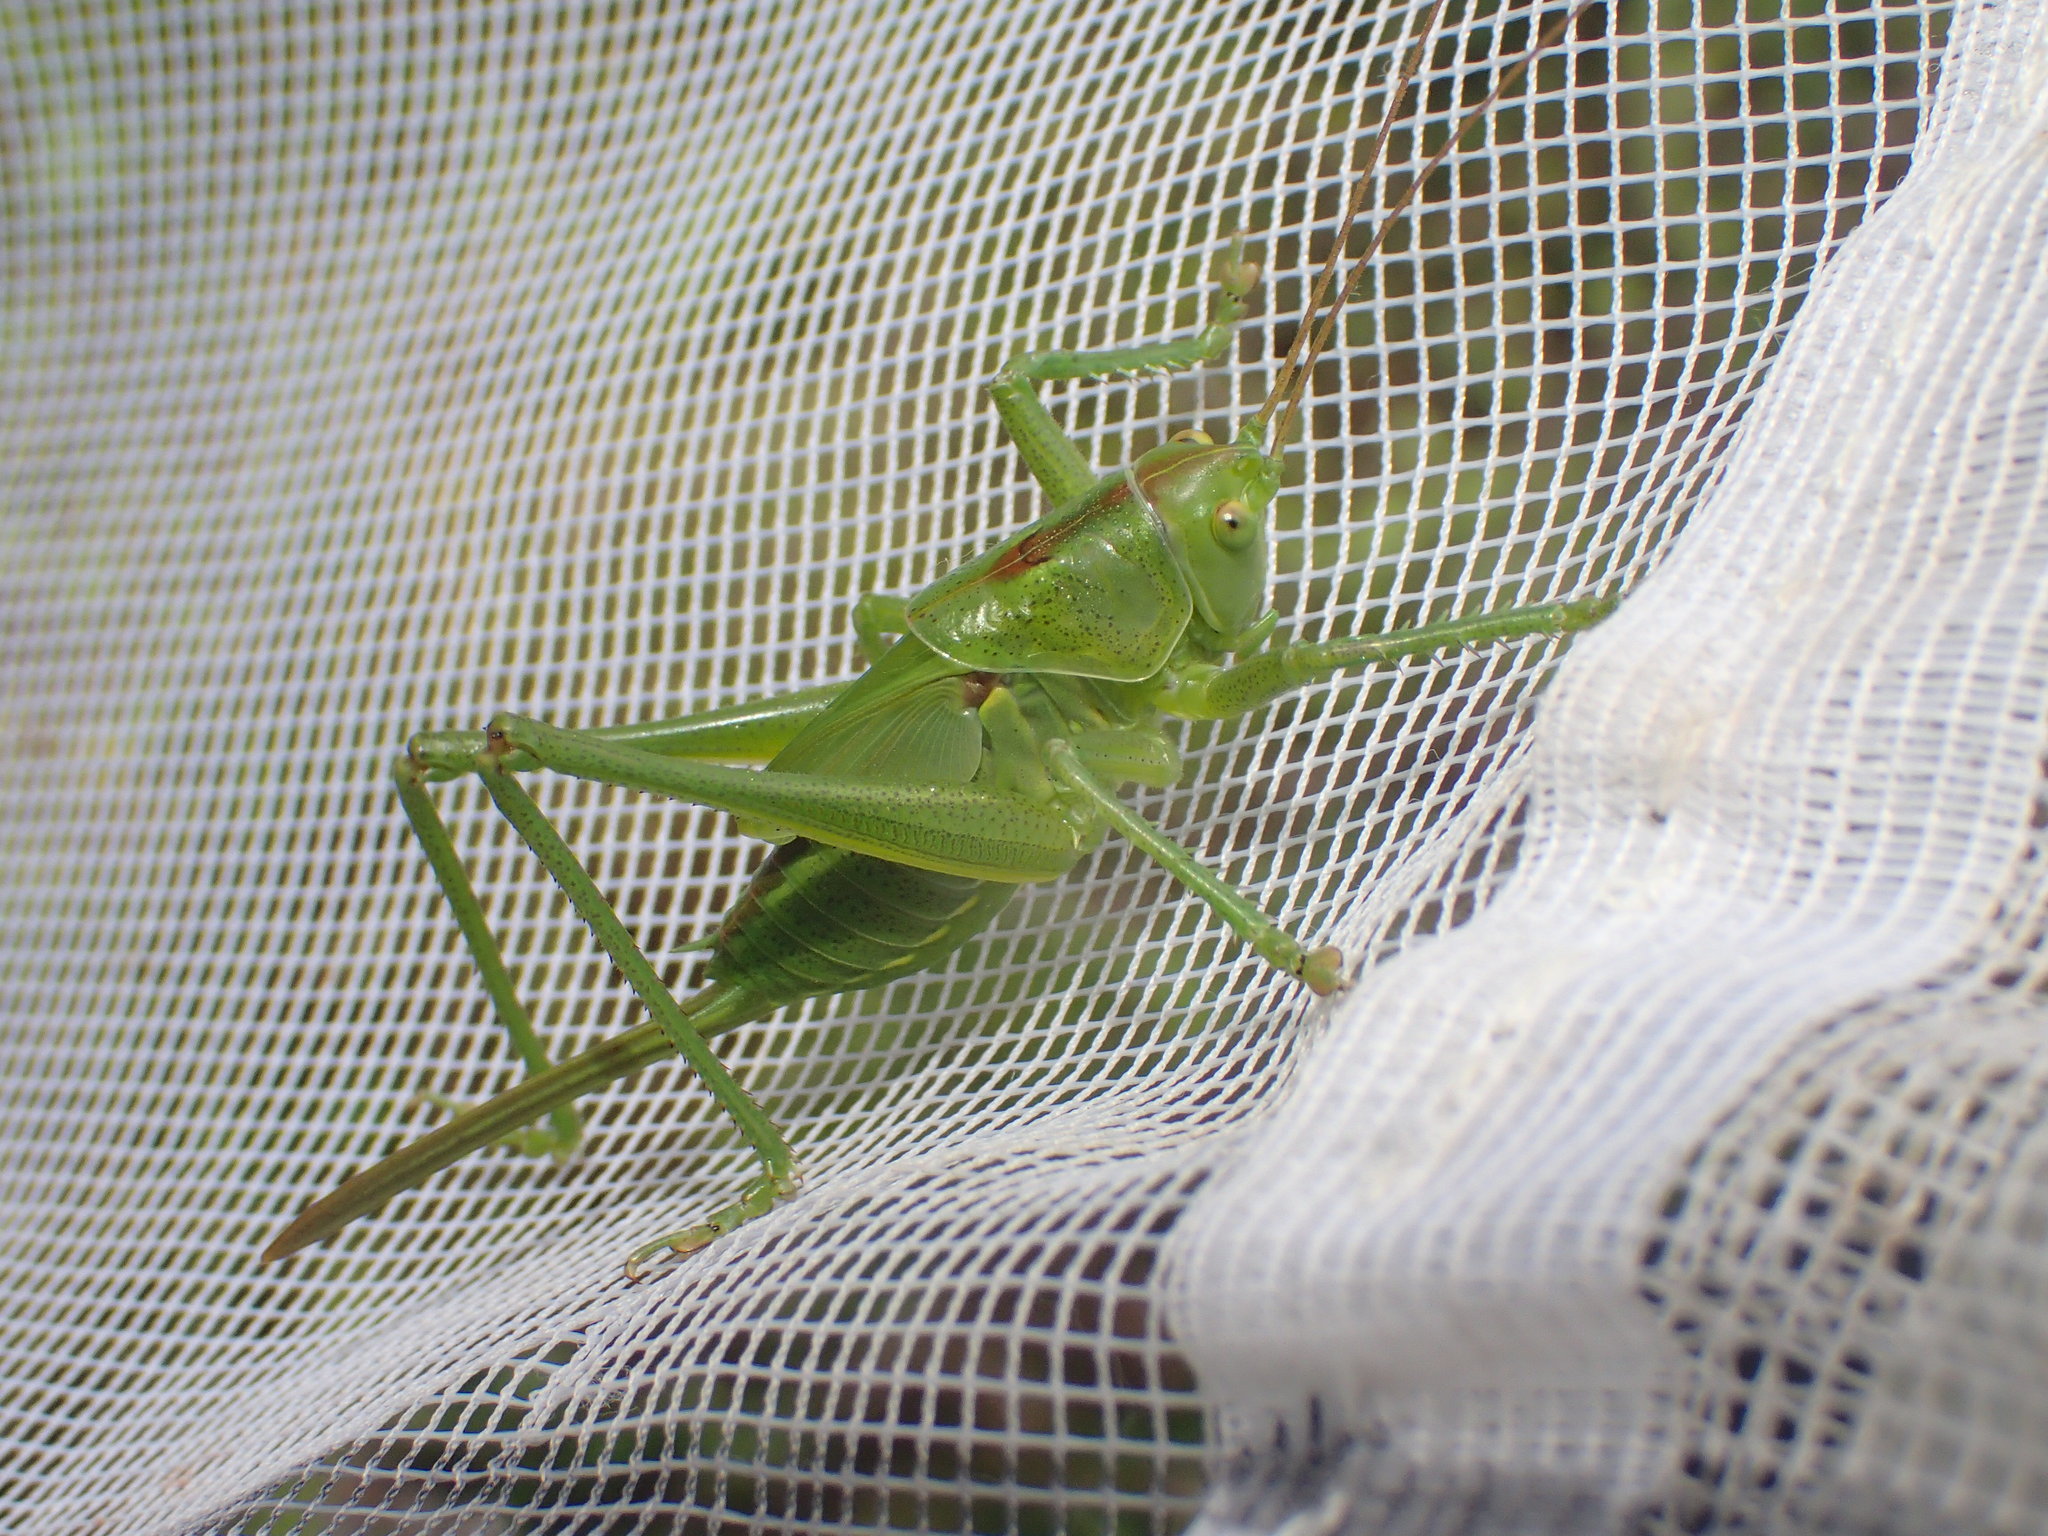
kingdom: Animalia
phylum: Arthropoda
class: Insecta
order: Orthoptera
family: Tettigoniidae
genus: Tettigonia
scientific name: Tettigonia viridissima
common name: Great green bush-cricket
